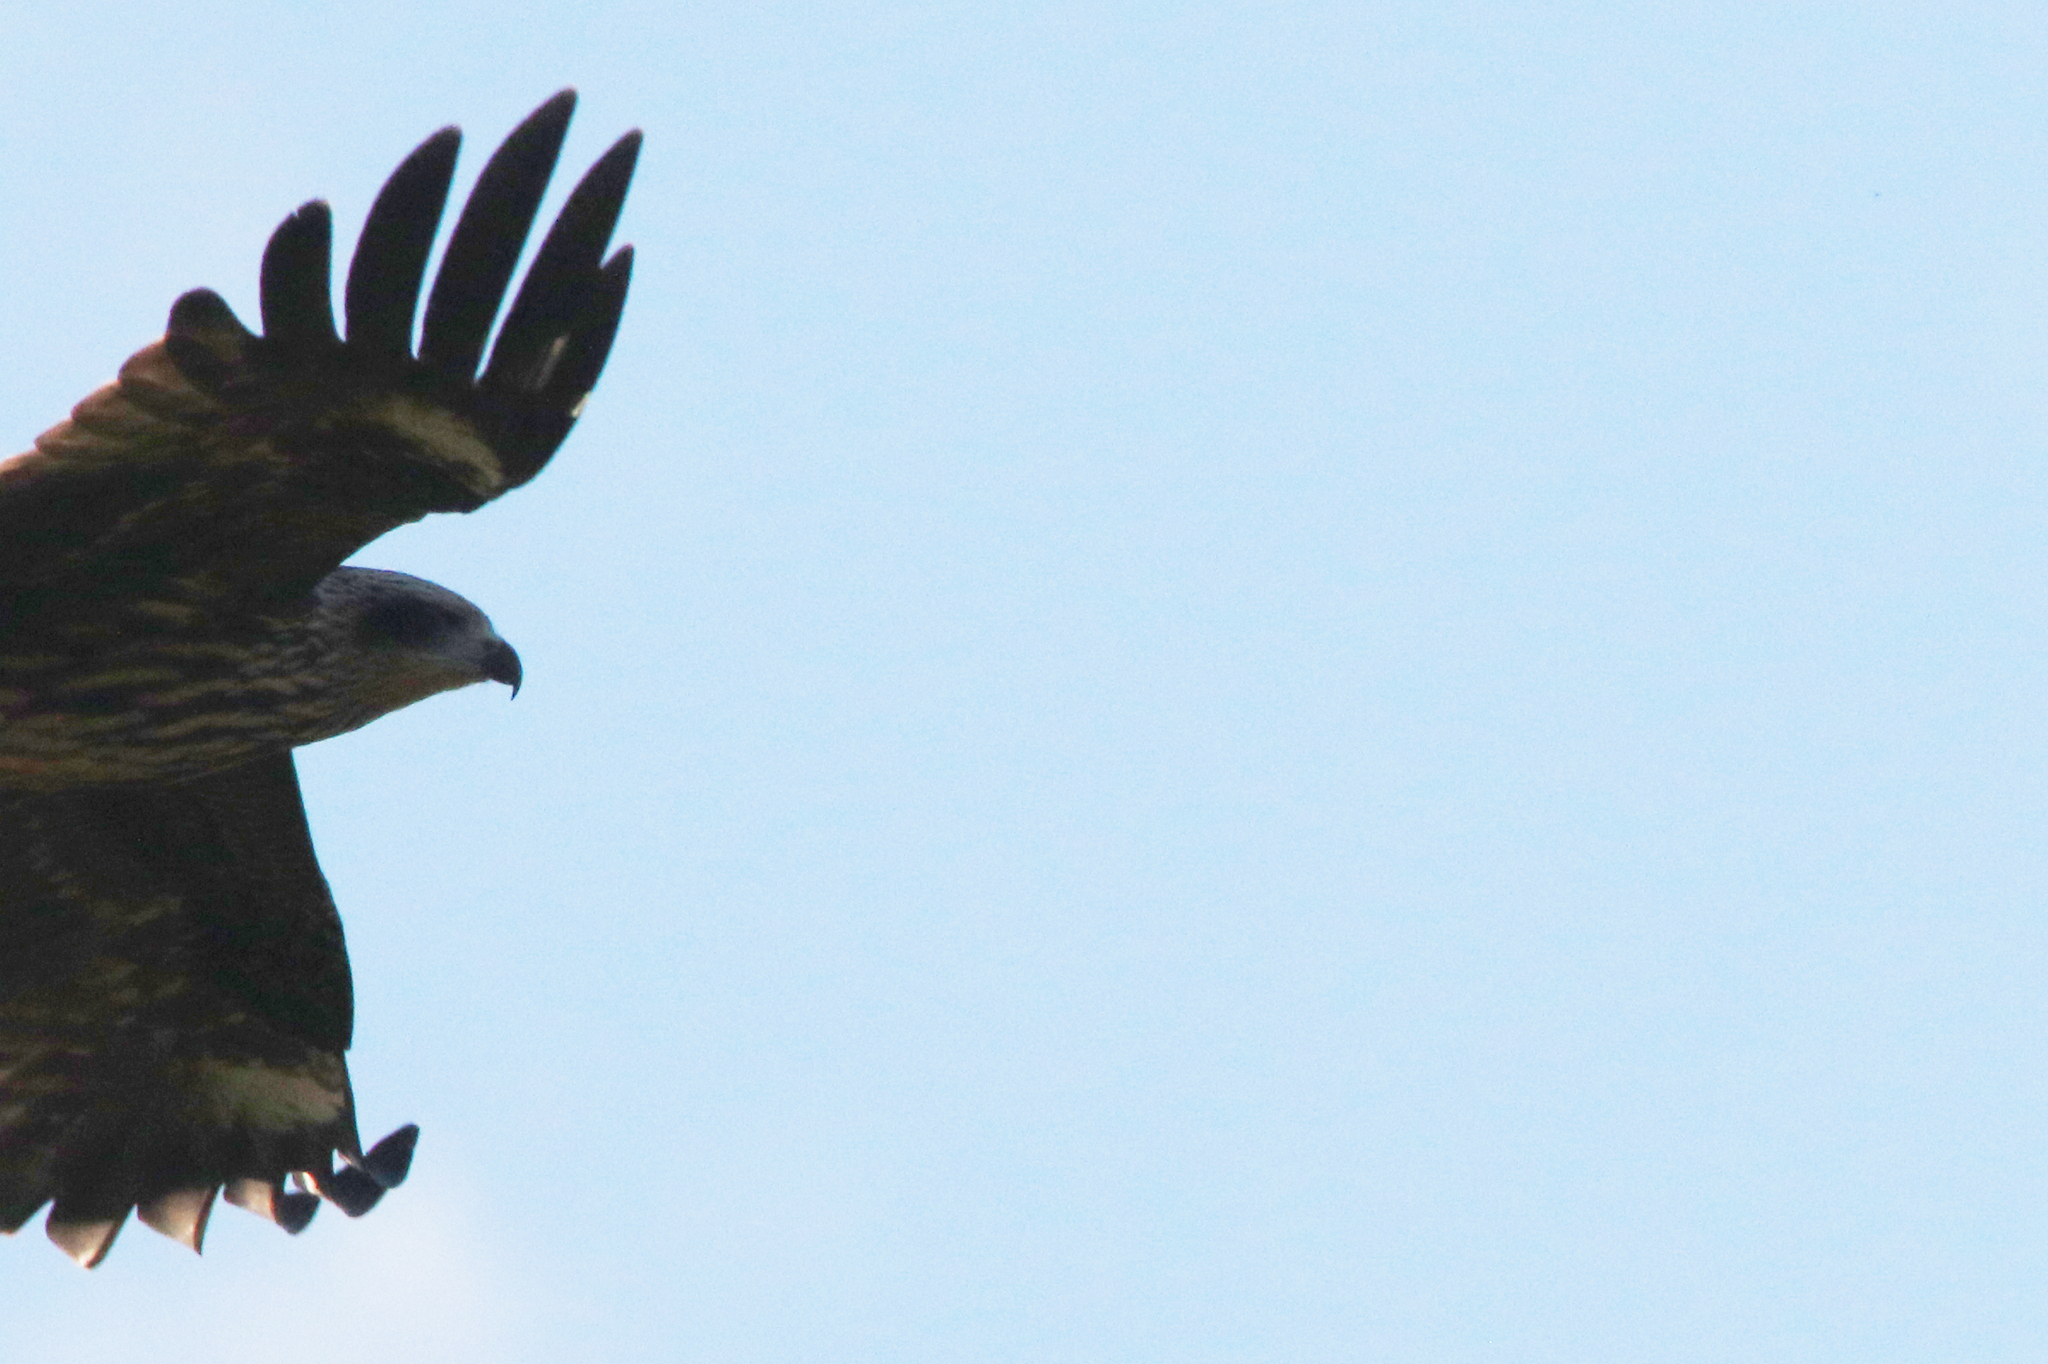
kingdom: Animalia
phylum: Chordata
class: Aves
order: Accipitriformes
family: Accipitridae
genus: Milvus
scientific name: Milvus migrans
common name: Black kite
